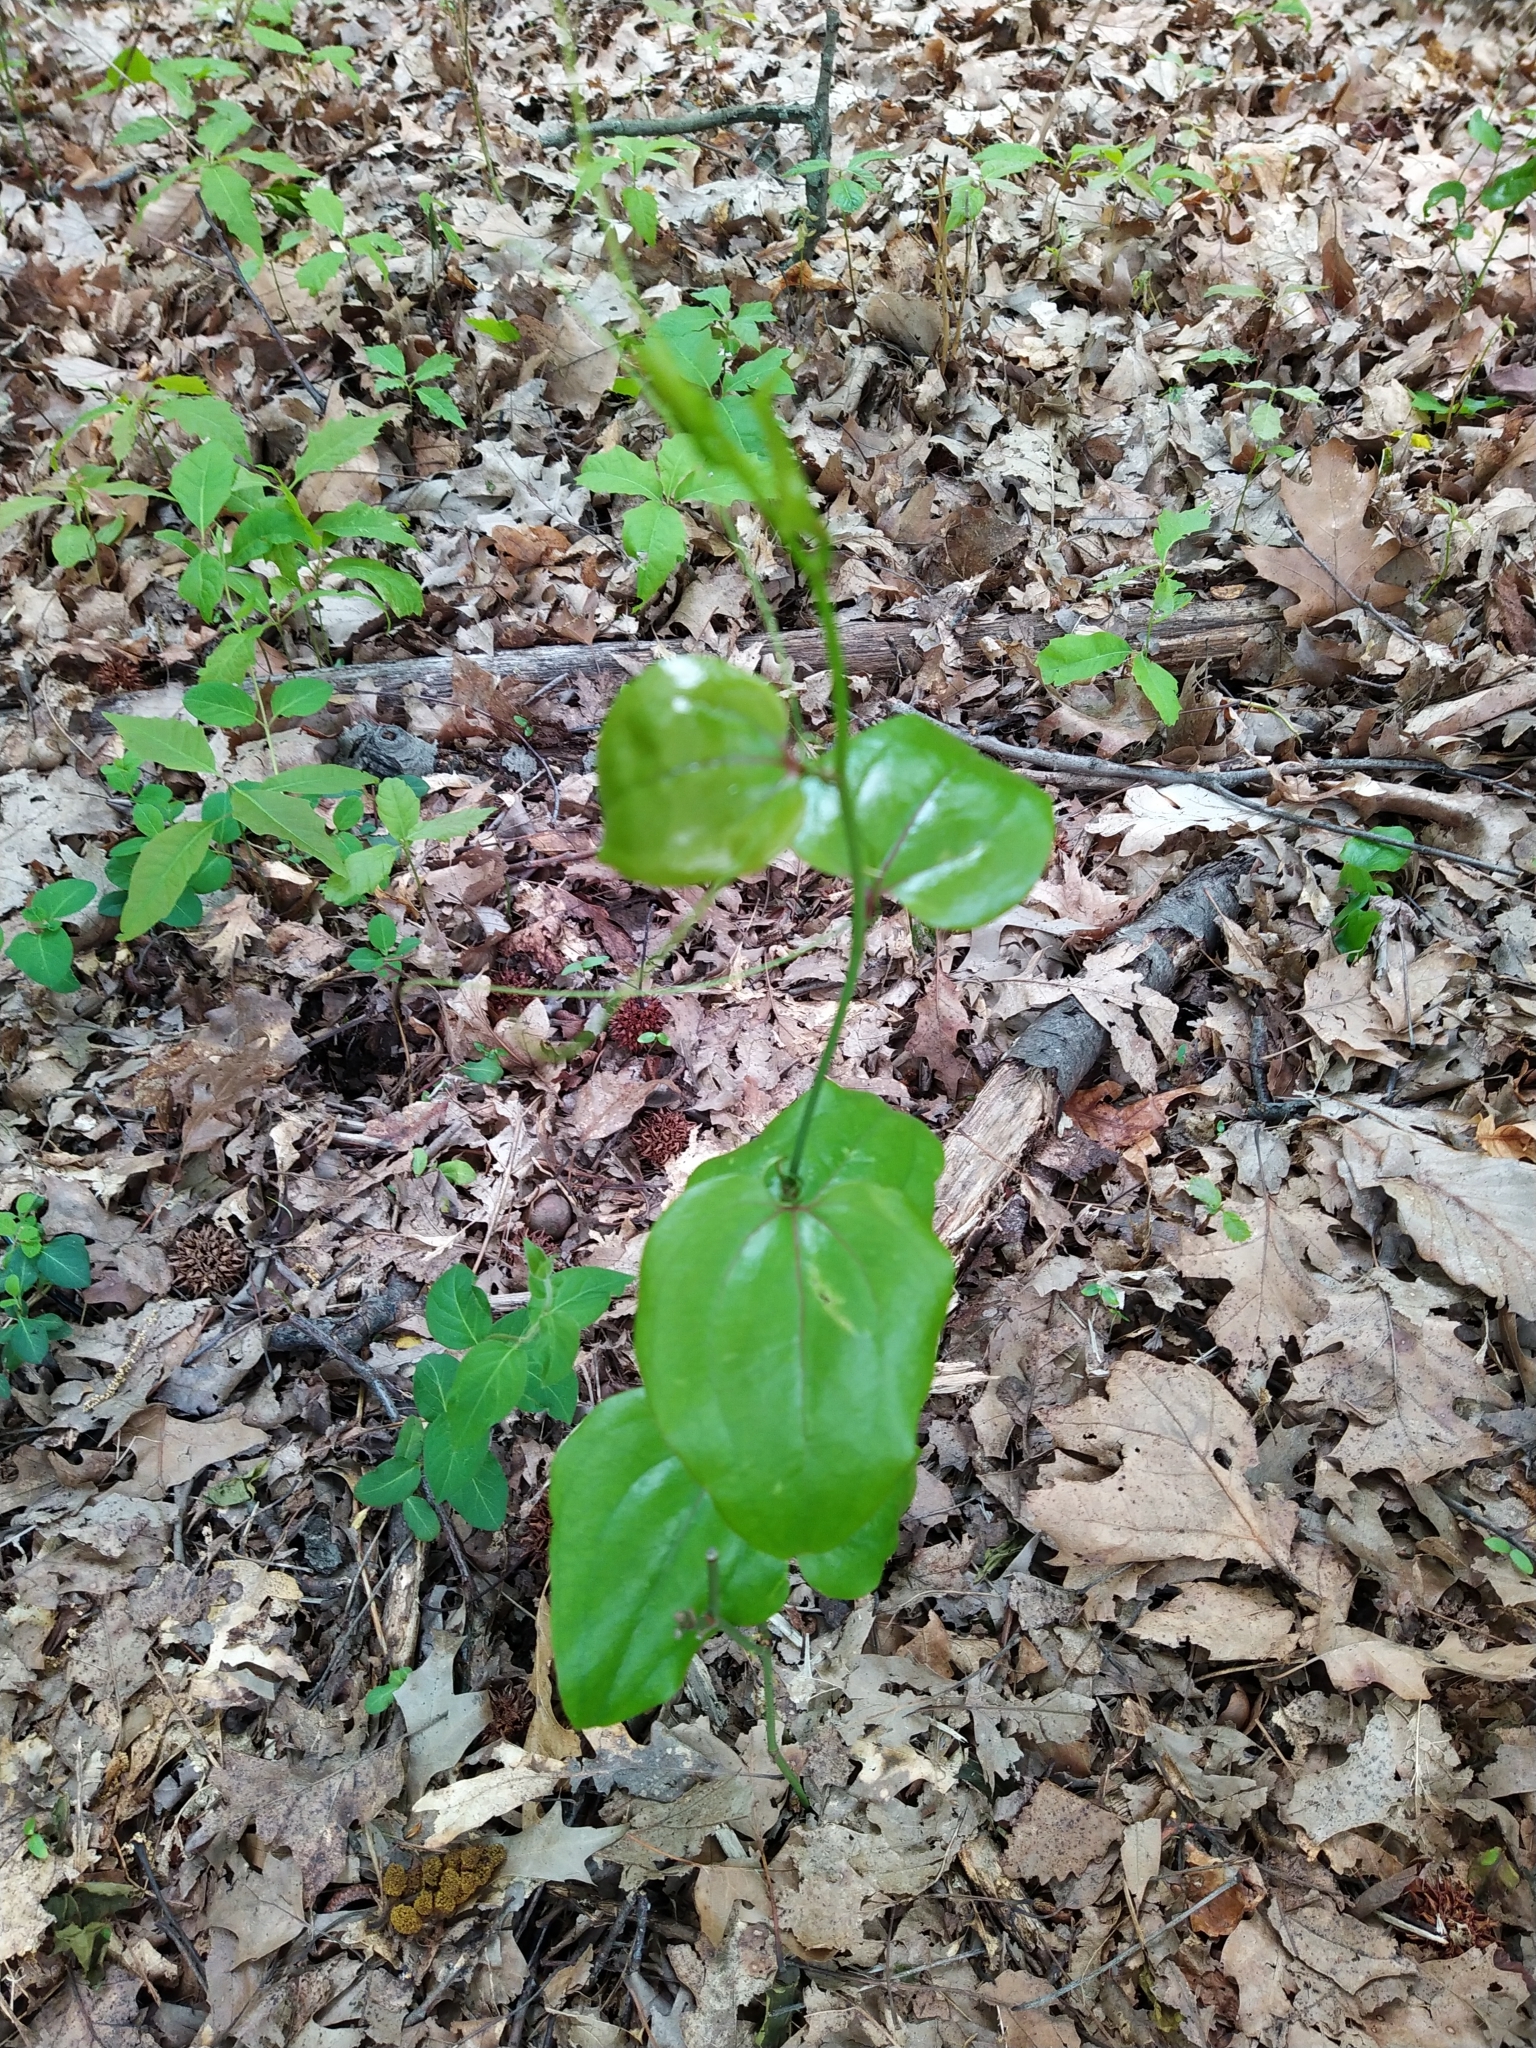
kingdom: Plantae
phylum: Tracheophyta
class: Liliopsida
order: Liliales
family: Smilacaceae
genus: Smilax
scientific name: Smilax rotundifolia
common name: Bullbriar
